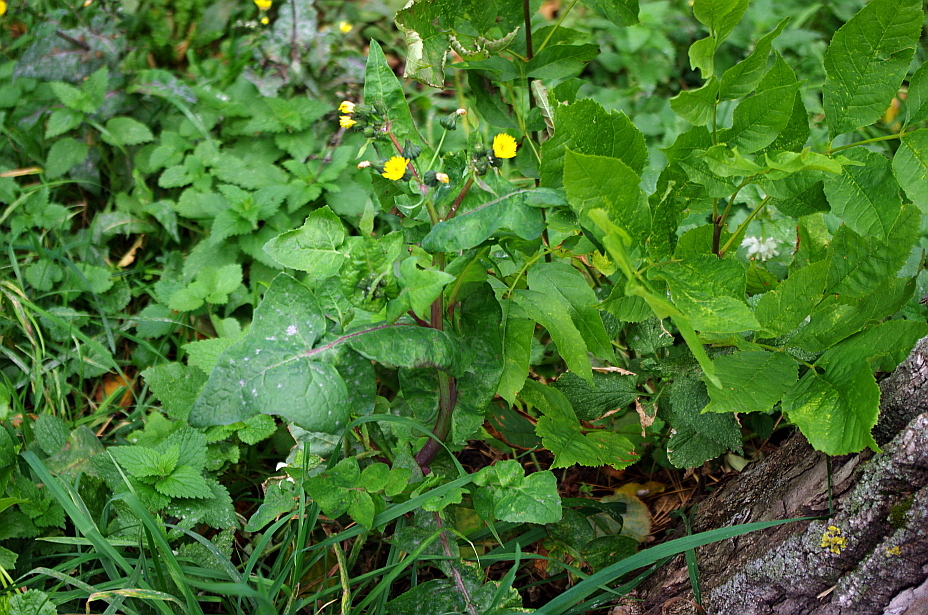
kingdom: Plantae
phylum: Tracheophyta
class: Magnoliopsida
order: Asterales
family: Asteraceae
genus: Sonchus
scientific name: Sonchus oleraceus
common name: Common sowthistle
